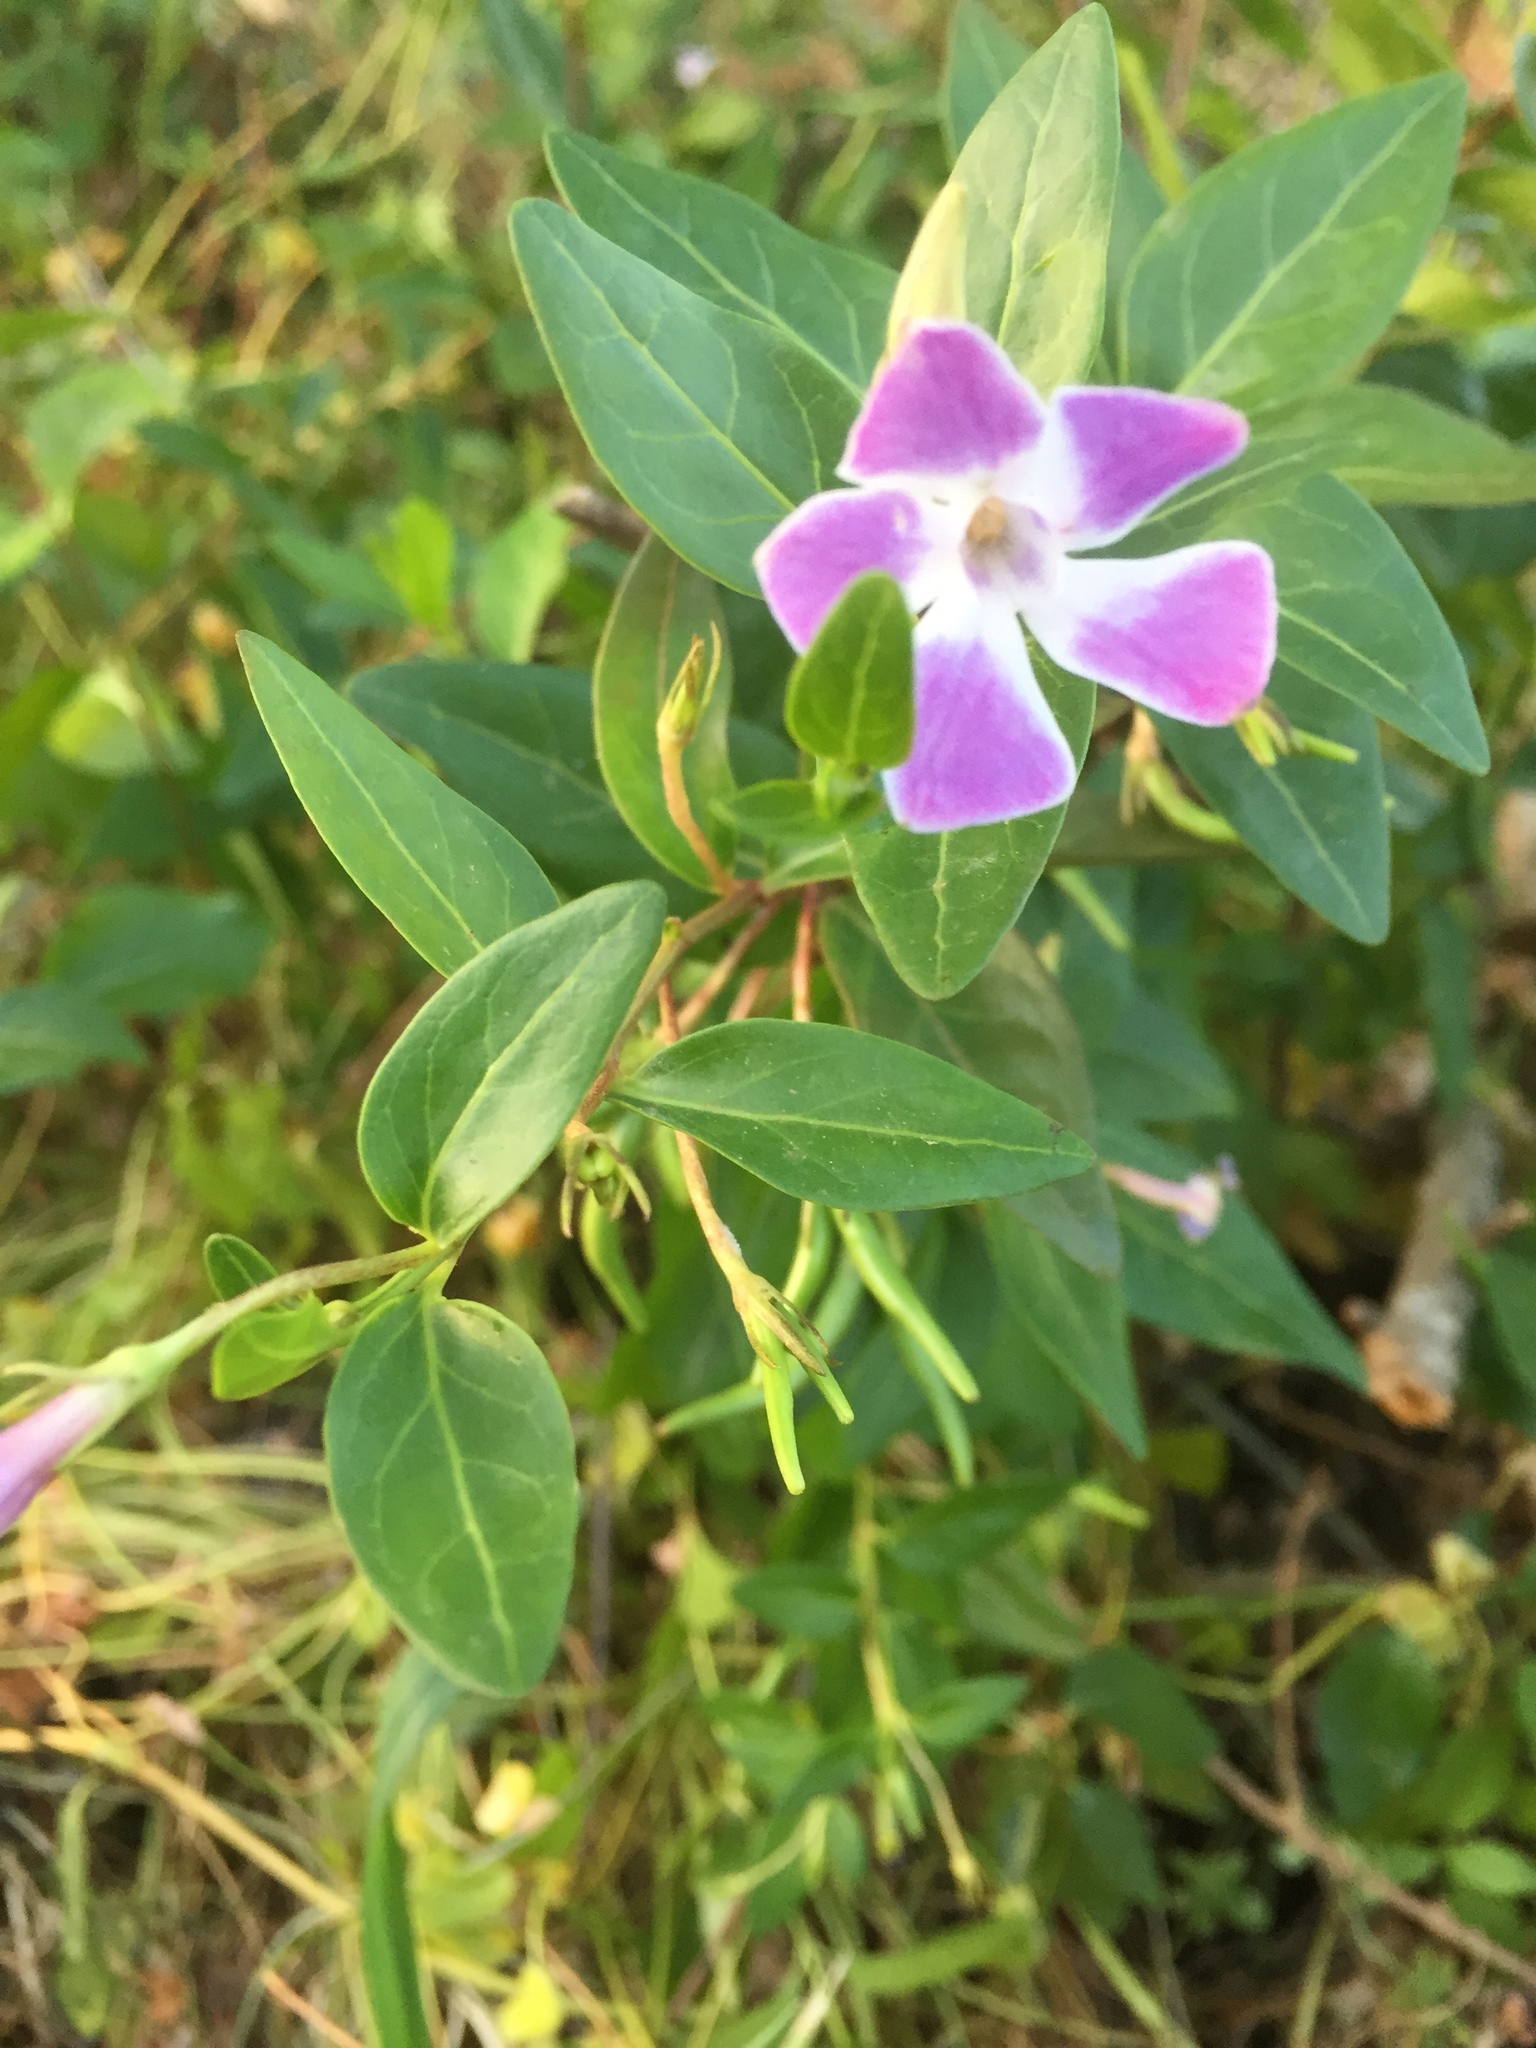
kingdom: Plantae
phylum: Tracheophyta
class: Magnoliopsida
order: Gentianales
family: Apocynaceae
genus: Vinca
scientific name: Vinca difformis
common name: Intermediate periwinkle
